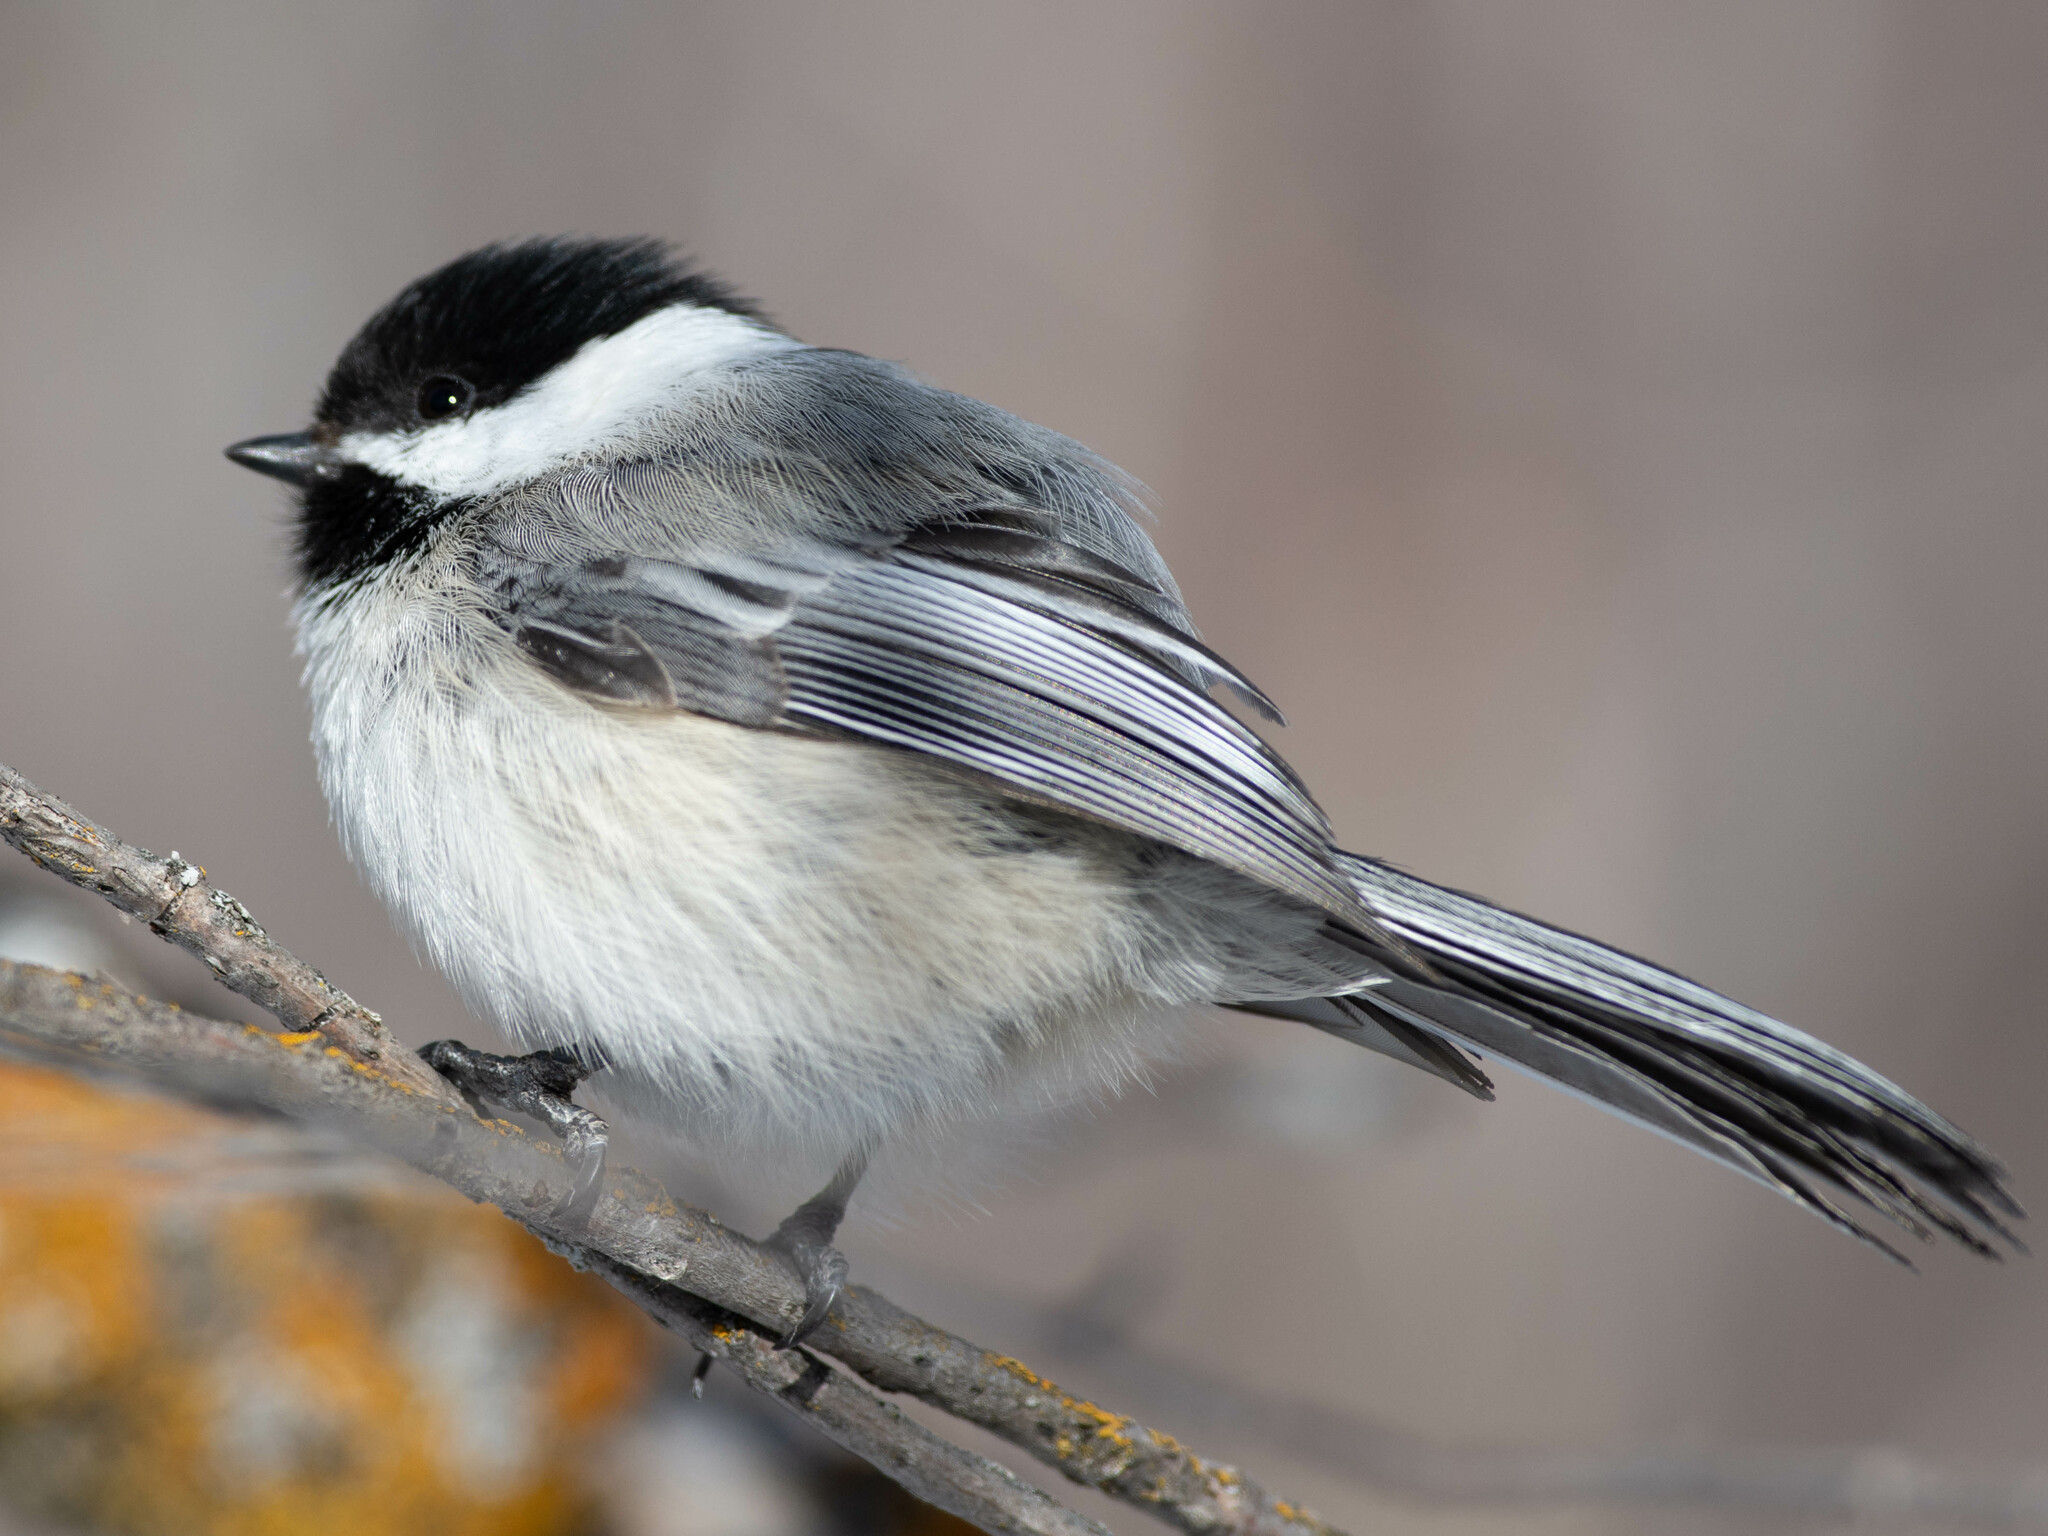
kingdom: Animalia
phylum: Chordata
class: Aves
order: Passeriformes
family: Paridae
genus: Poecile
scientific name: Poecile atricapillus
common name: Black-capped chickadee
